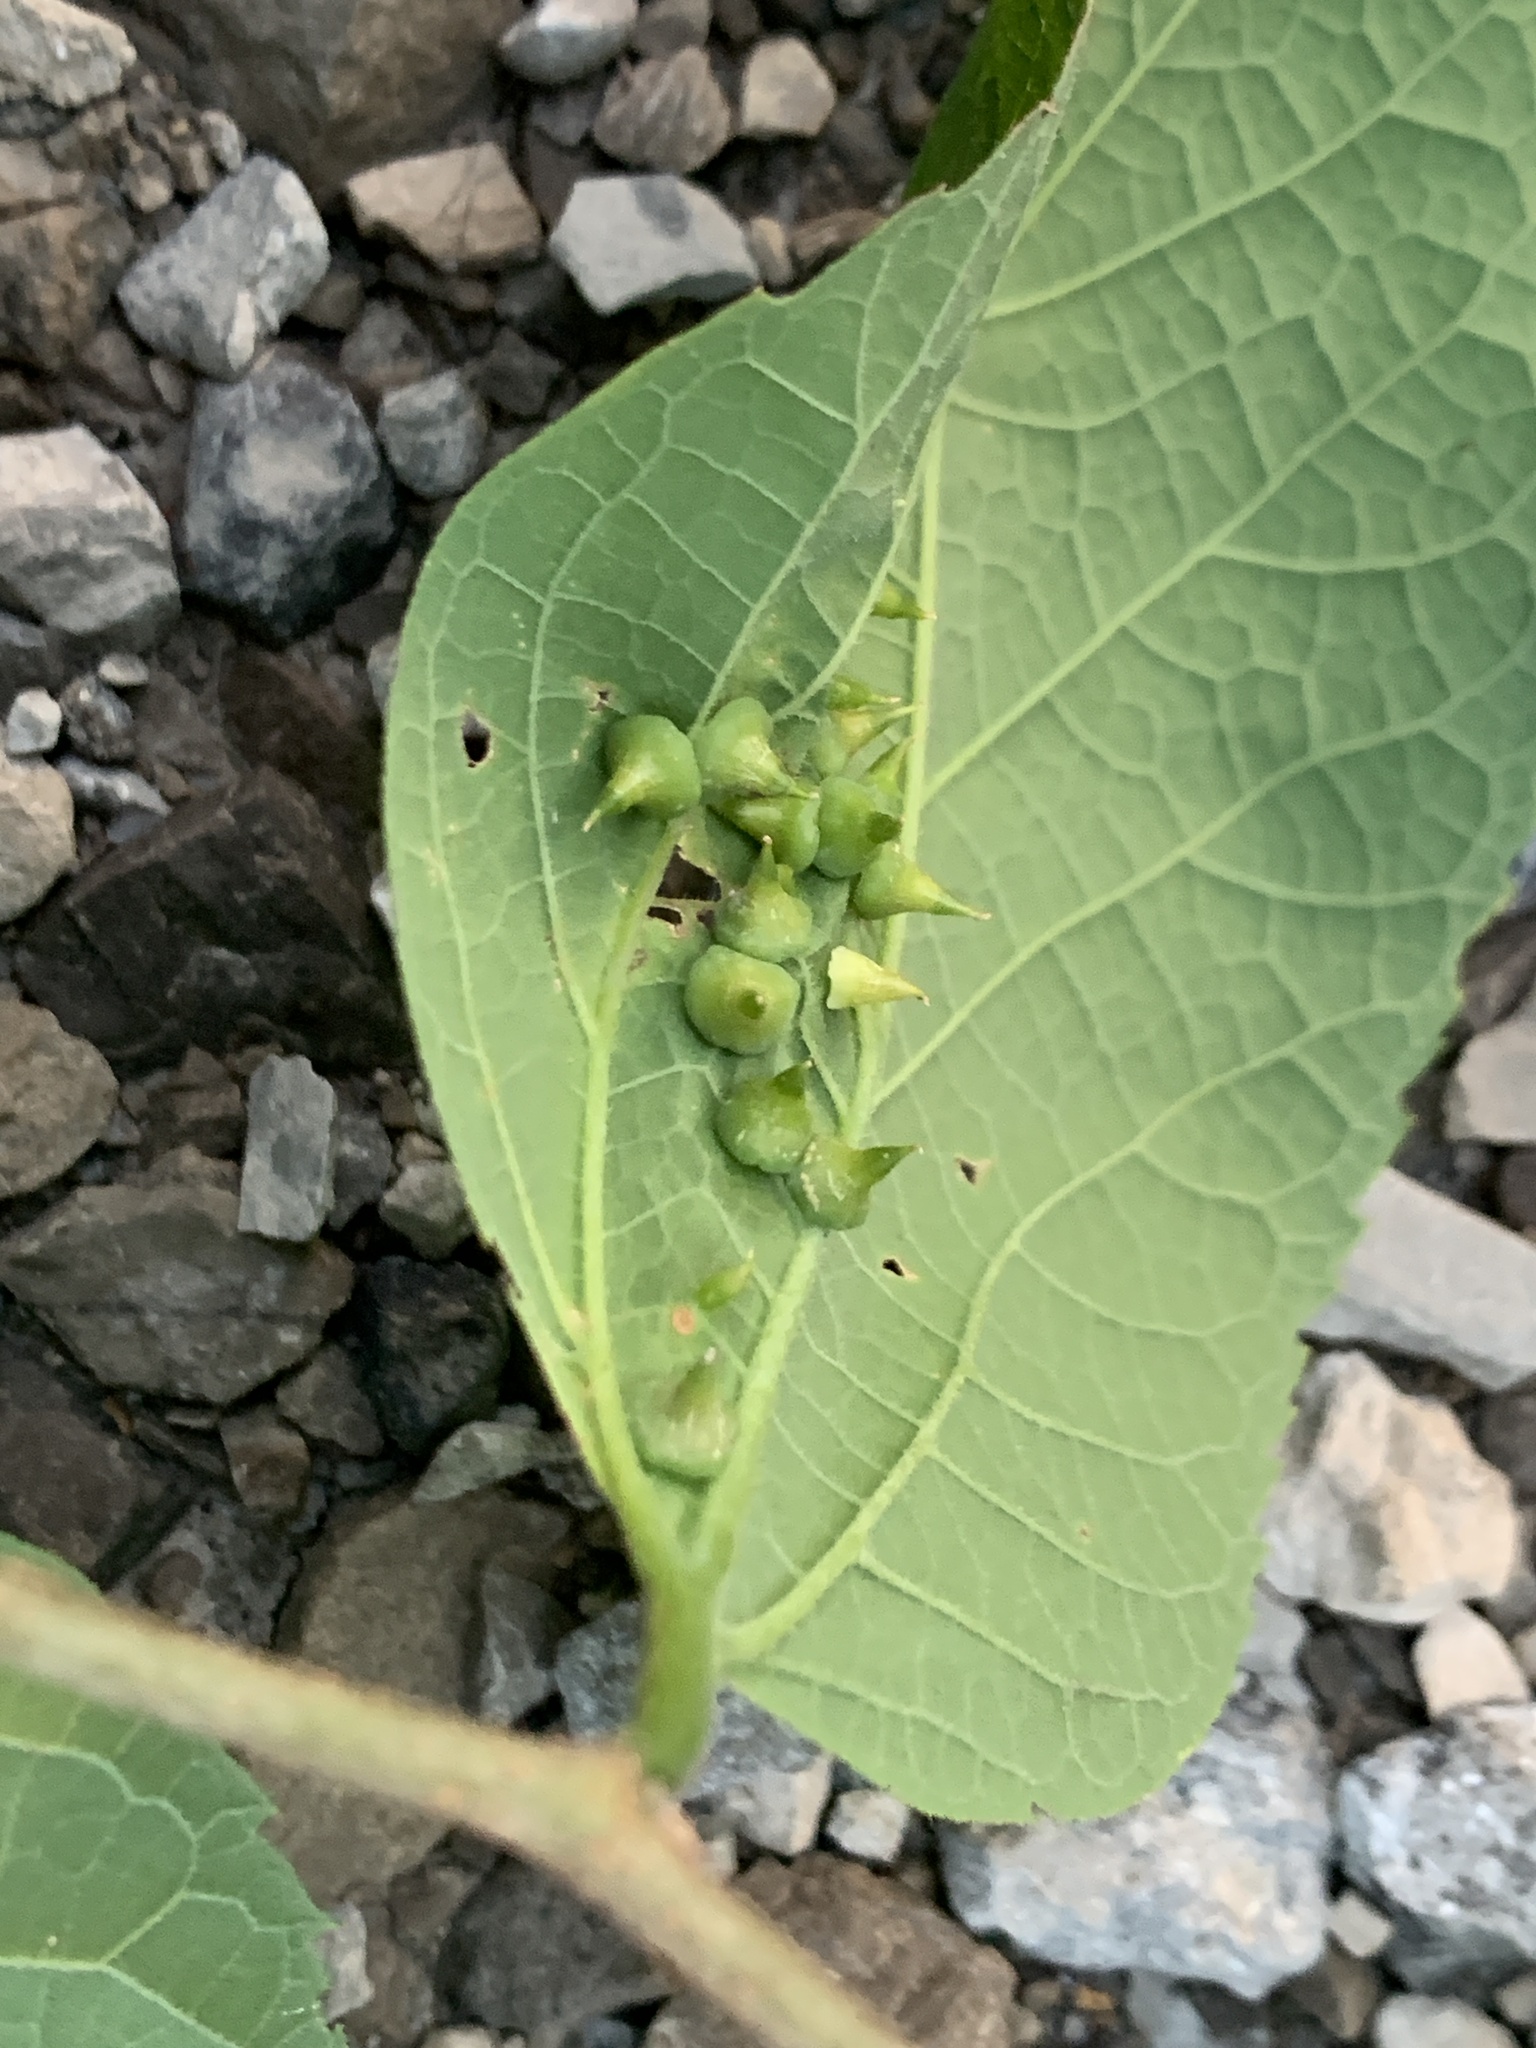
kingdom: Animalia
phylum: Arthropoda
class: Insecta
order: Diptera
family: Cecidomyiidae
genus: Celticecis
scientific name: Celticecis spiniformis
